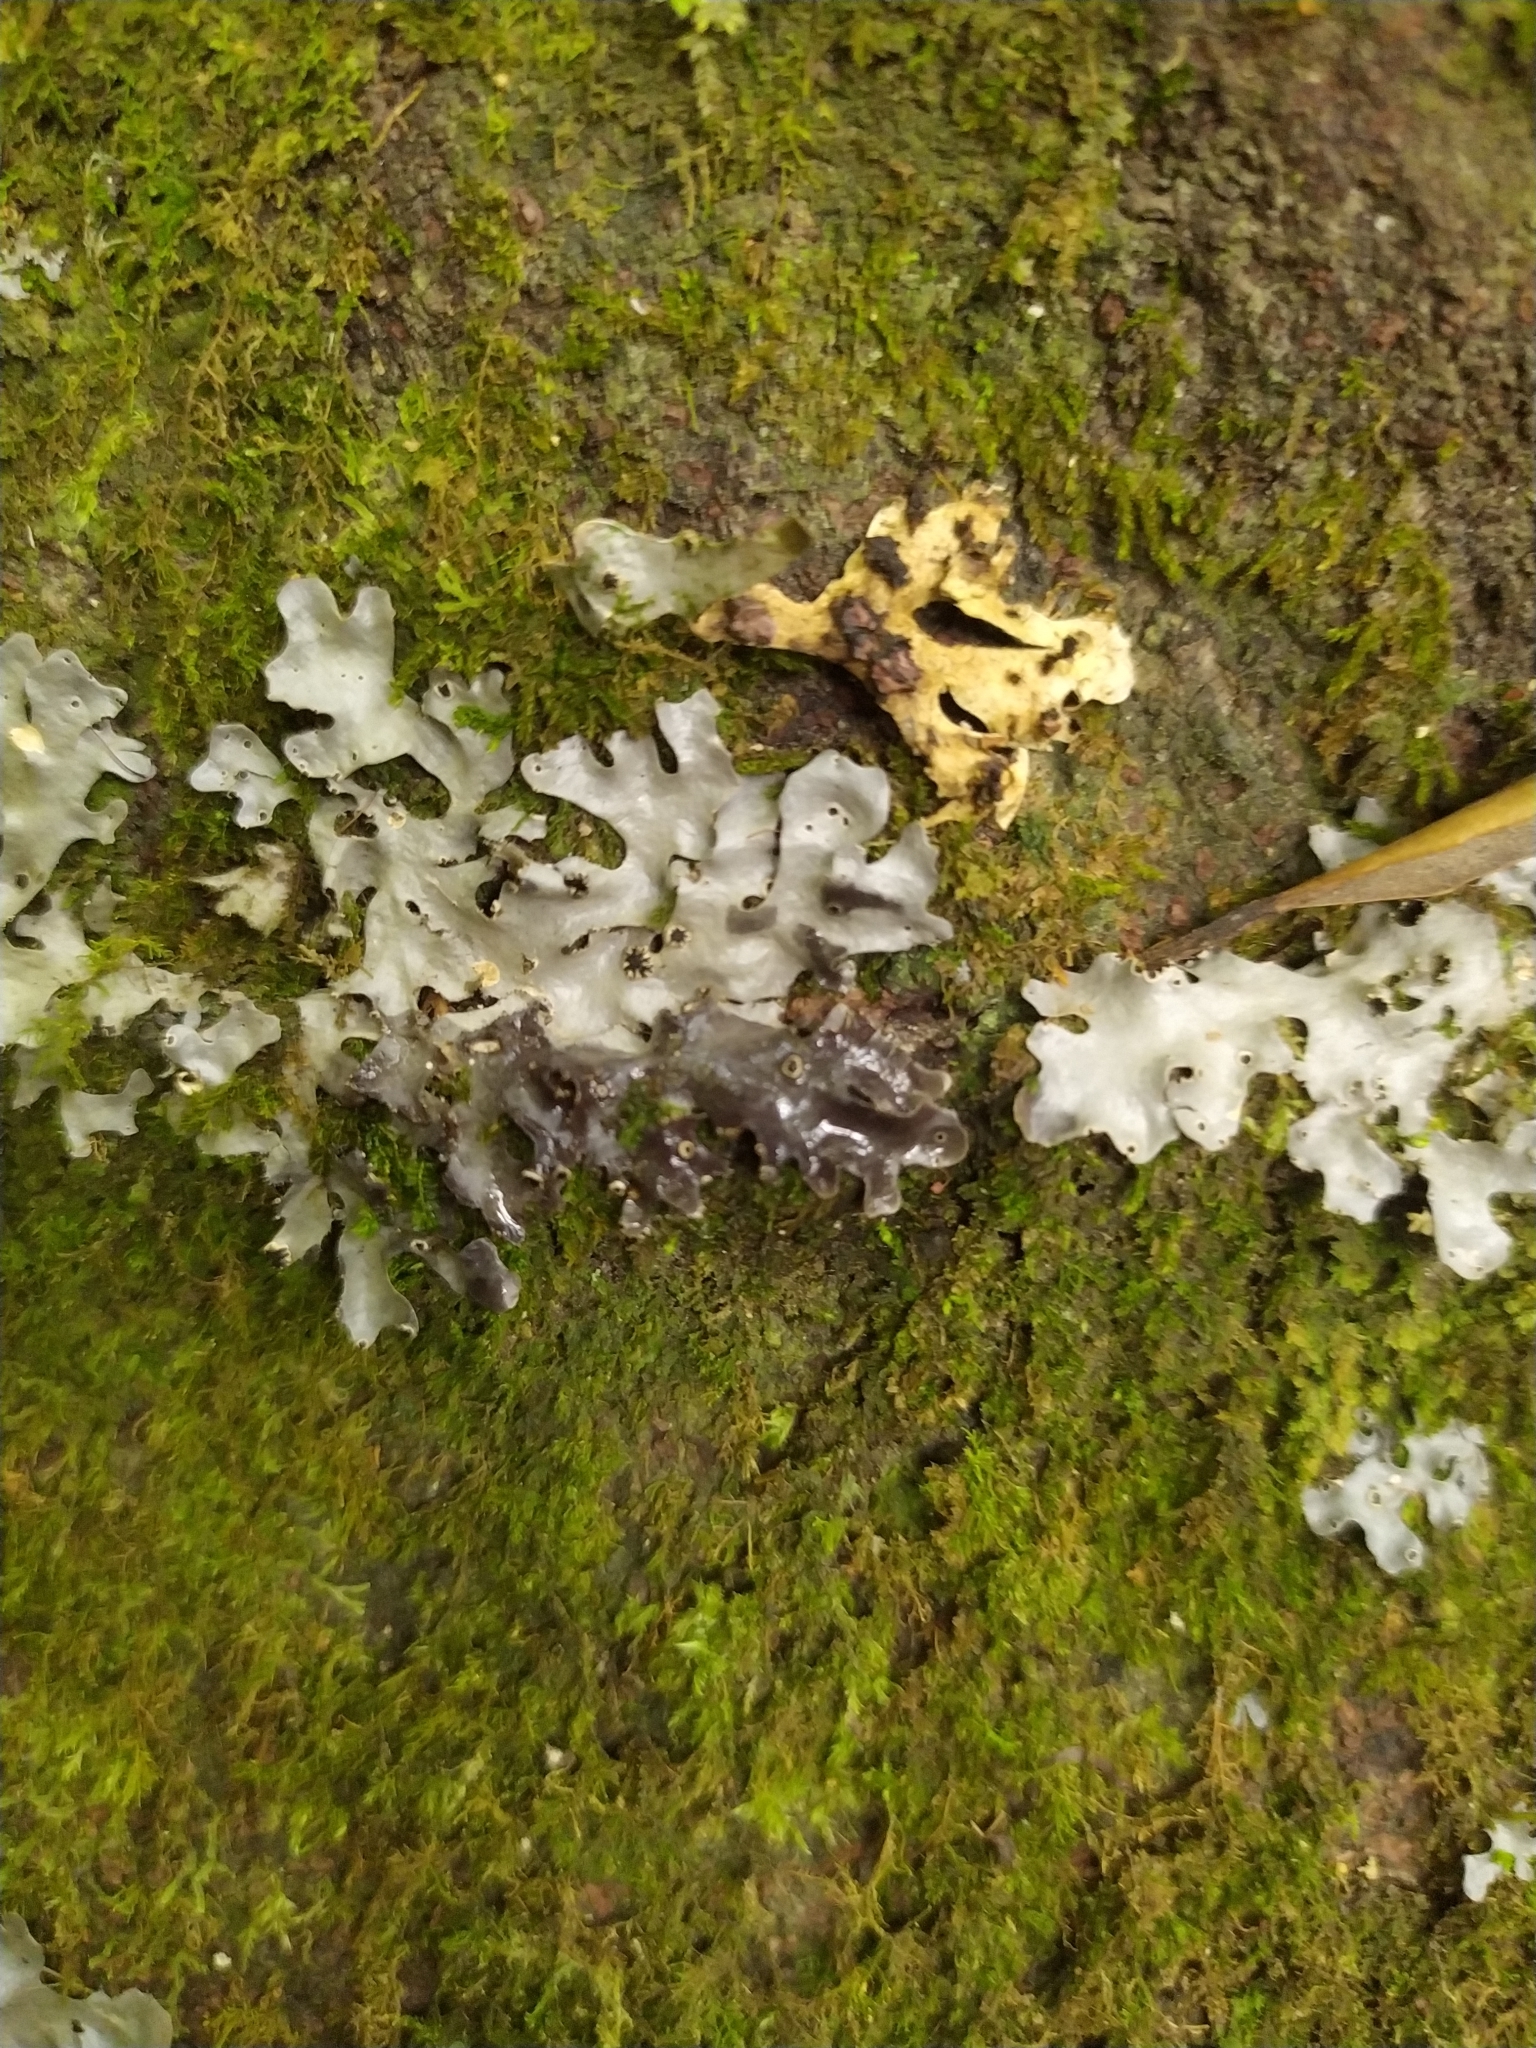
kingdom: Fungi
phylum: Ascomycota
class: Lecanoromycetes
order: Peltigerales
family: Lobariaceae
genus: Pseudocyphellaria
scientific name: Pseudocyphellaria dissimilis
